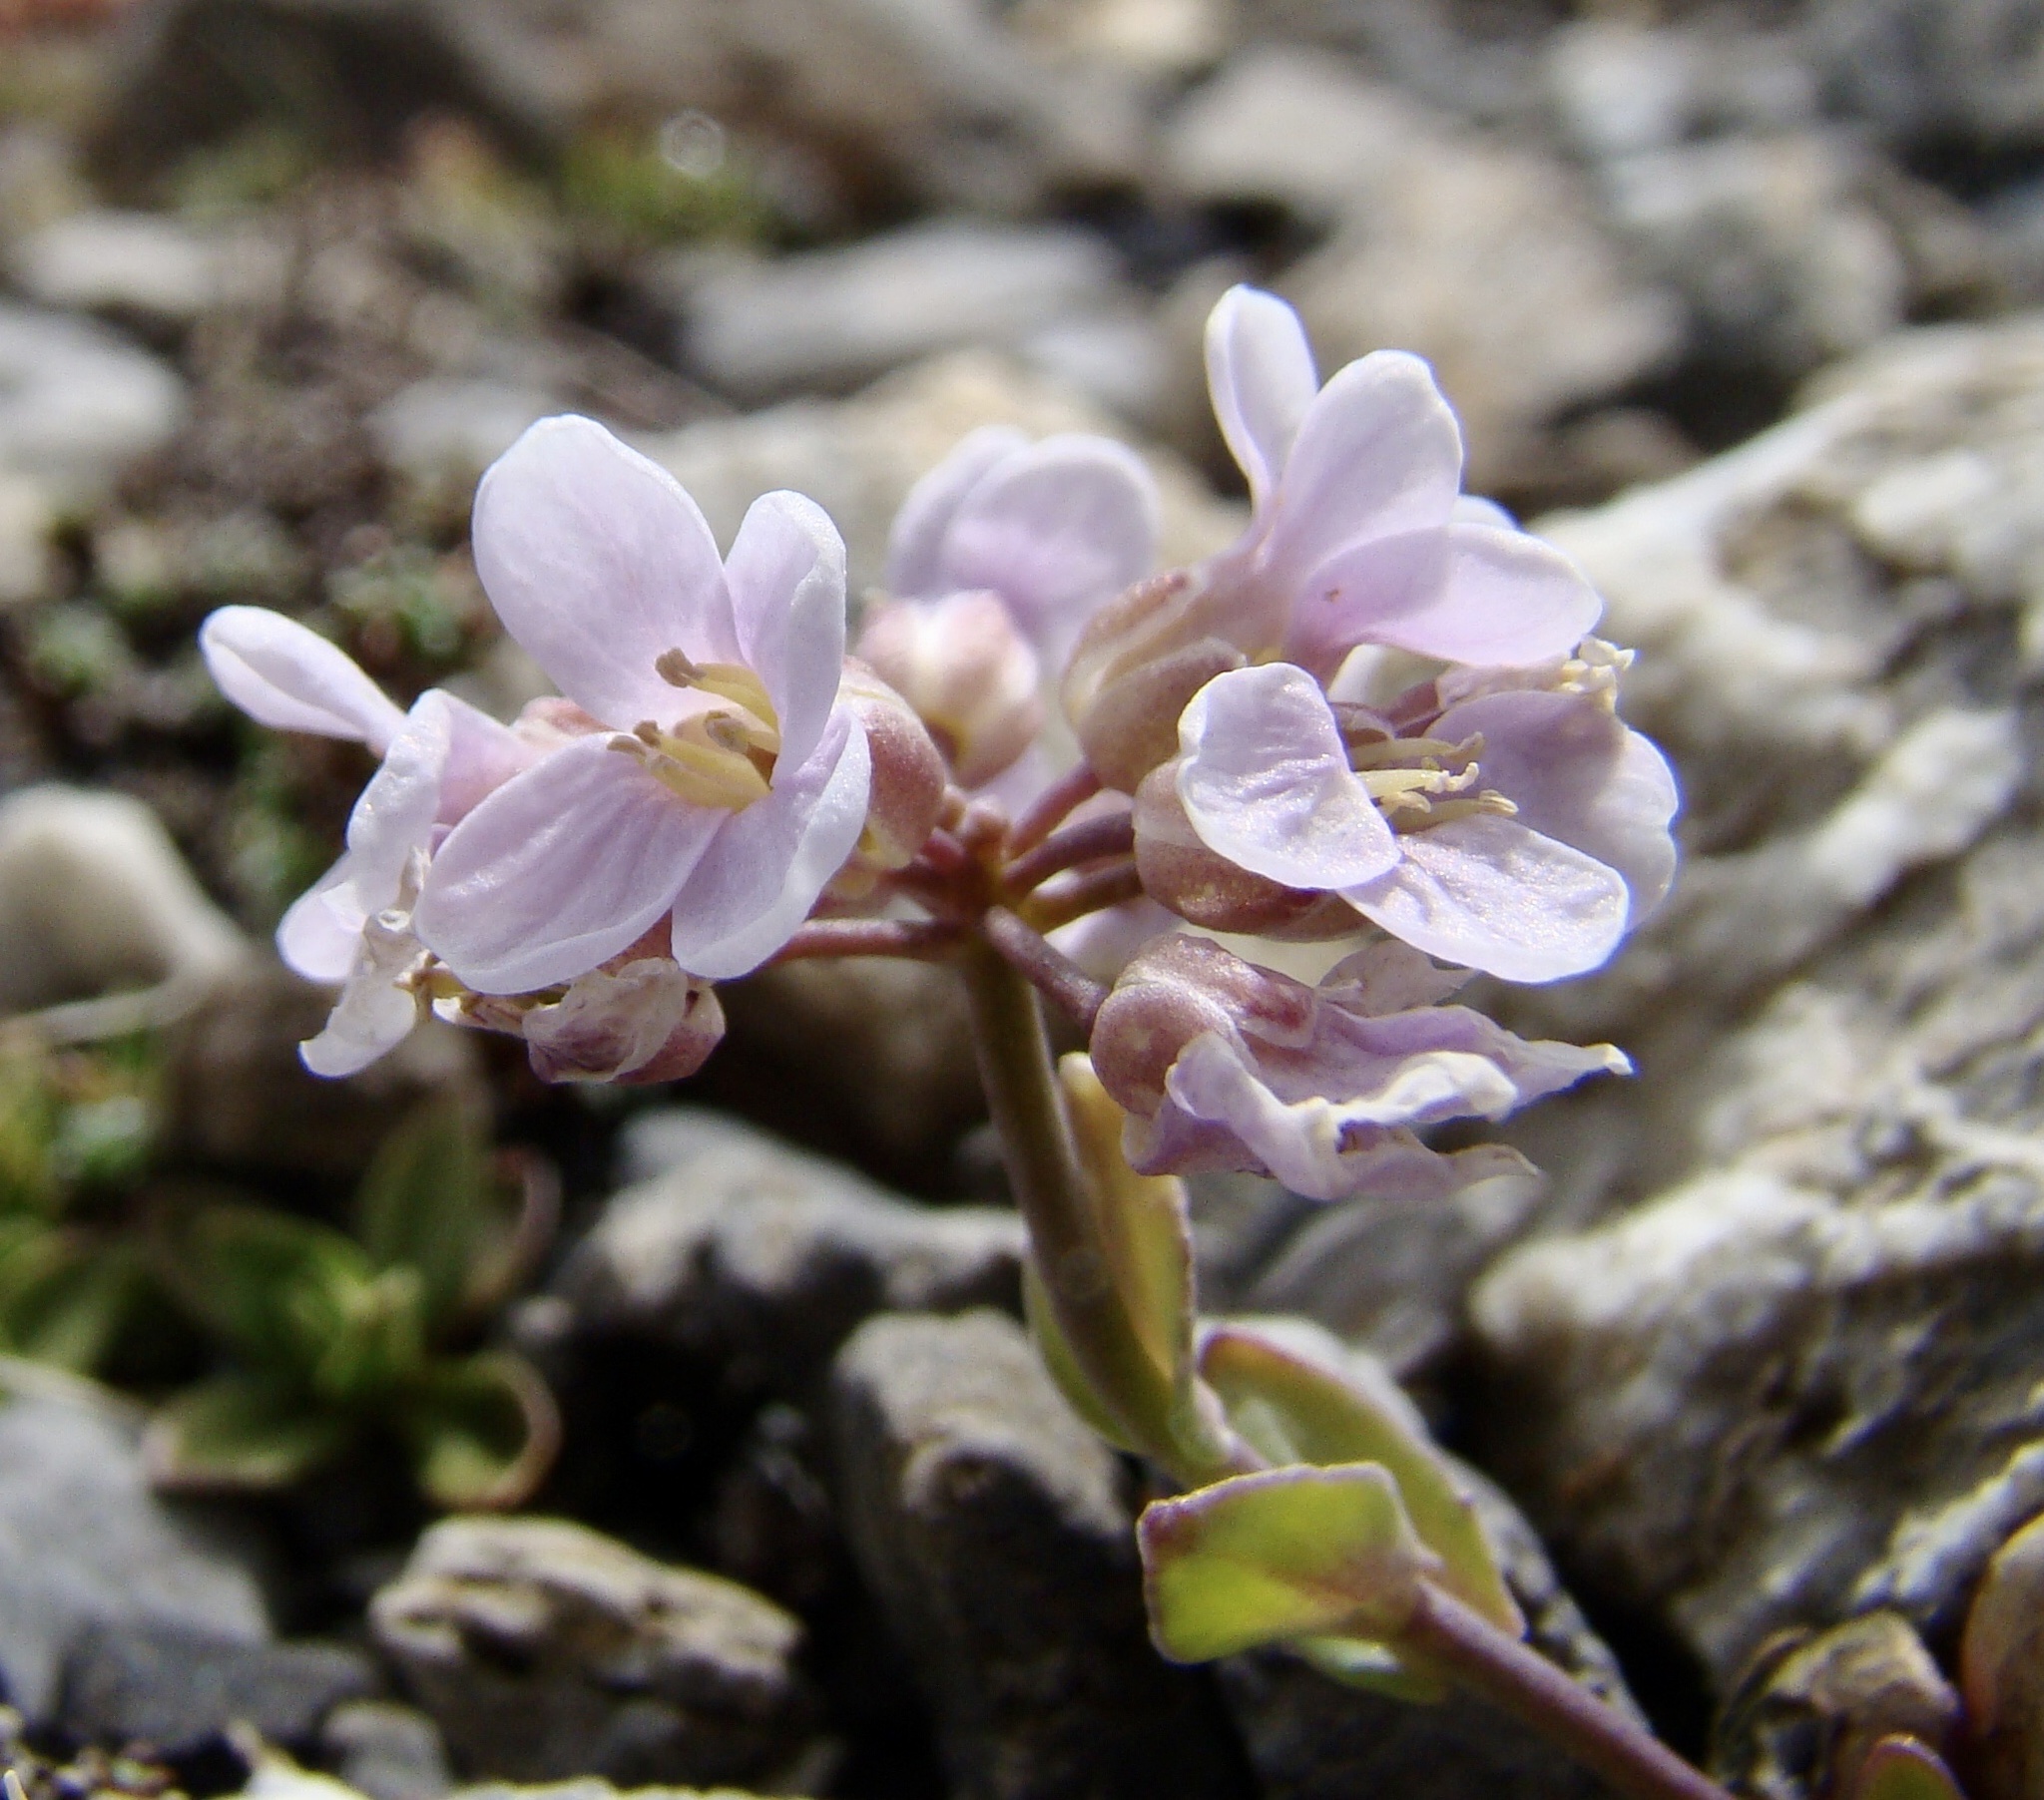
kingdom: Plantae
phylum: Tracheophyta
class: Magnoliopsida
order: Brassicales
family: Brassicaceae
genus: Noccaea
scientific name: Noccaea rotundifolia
